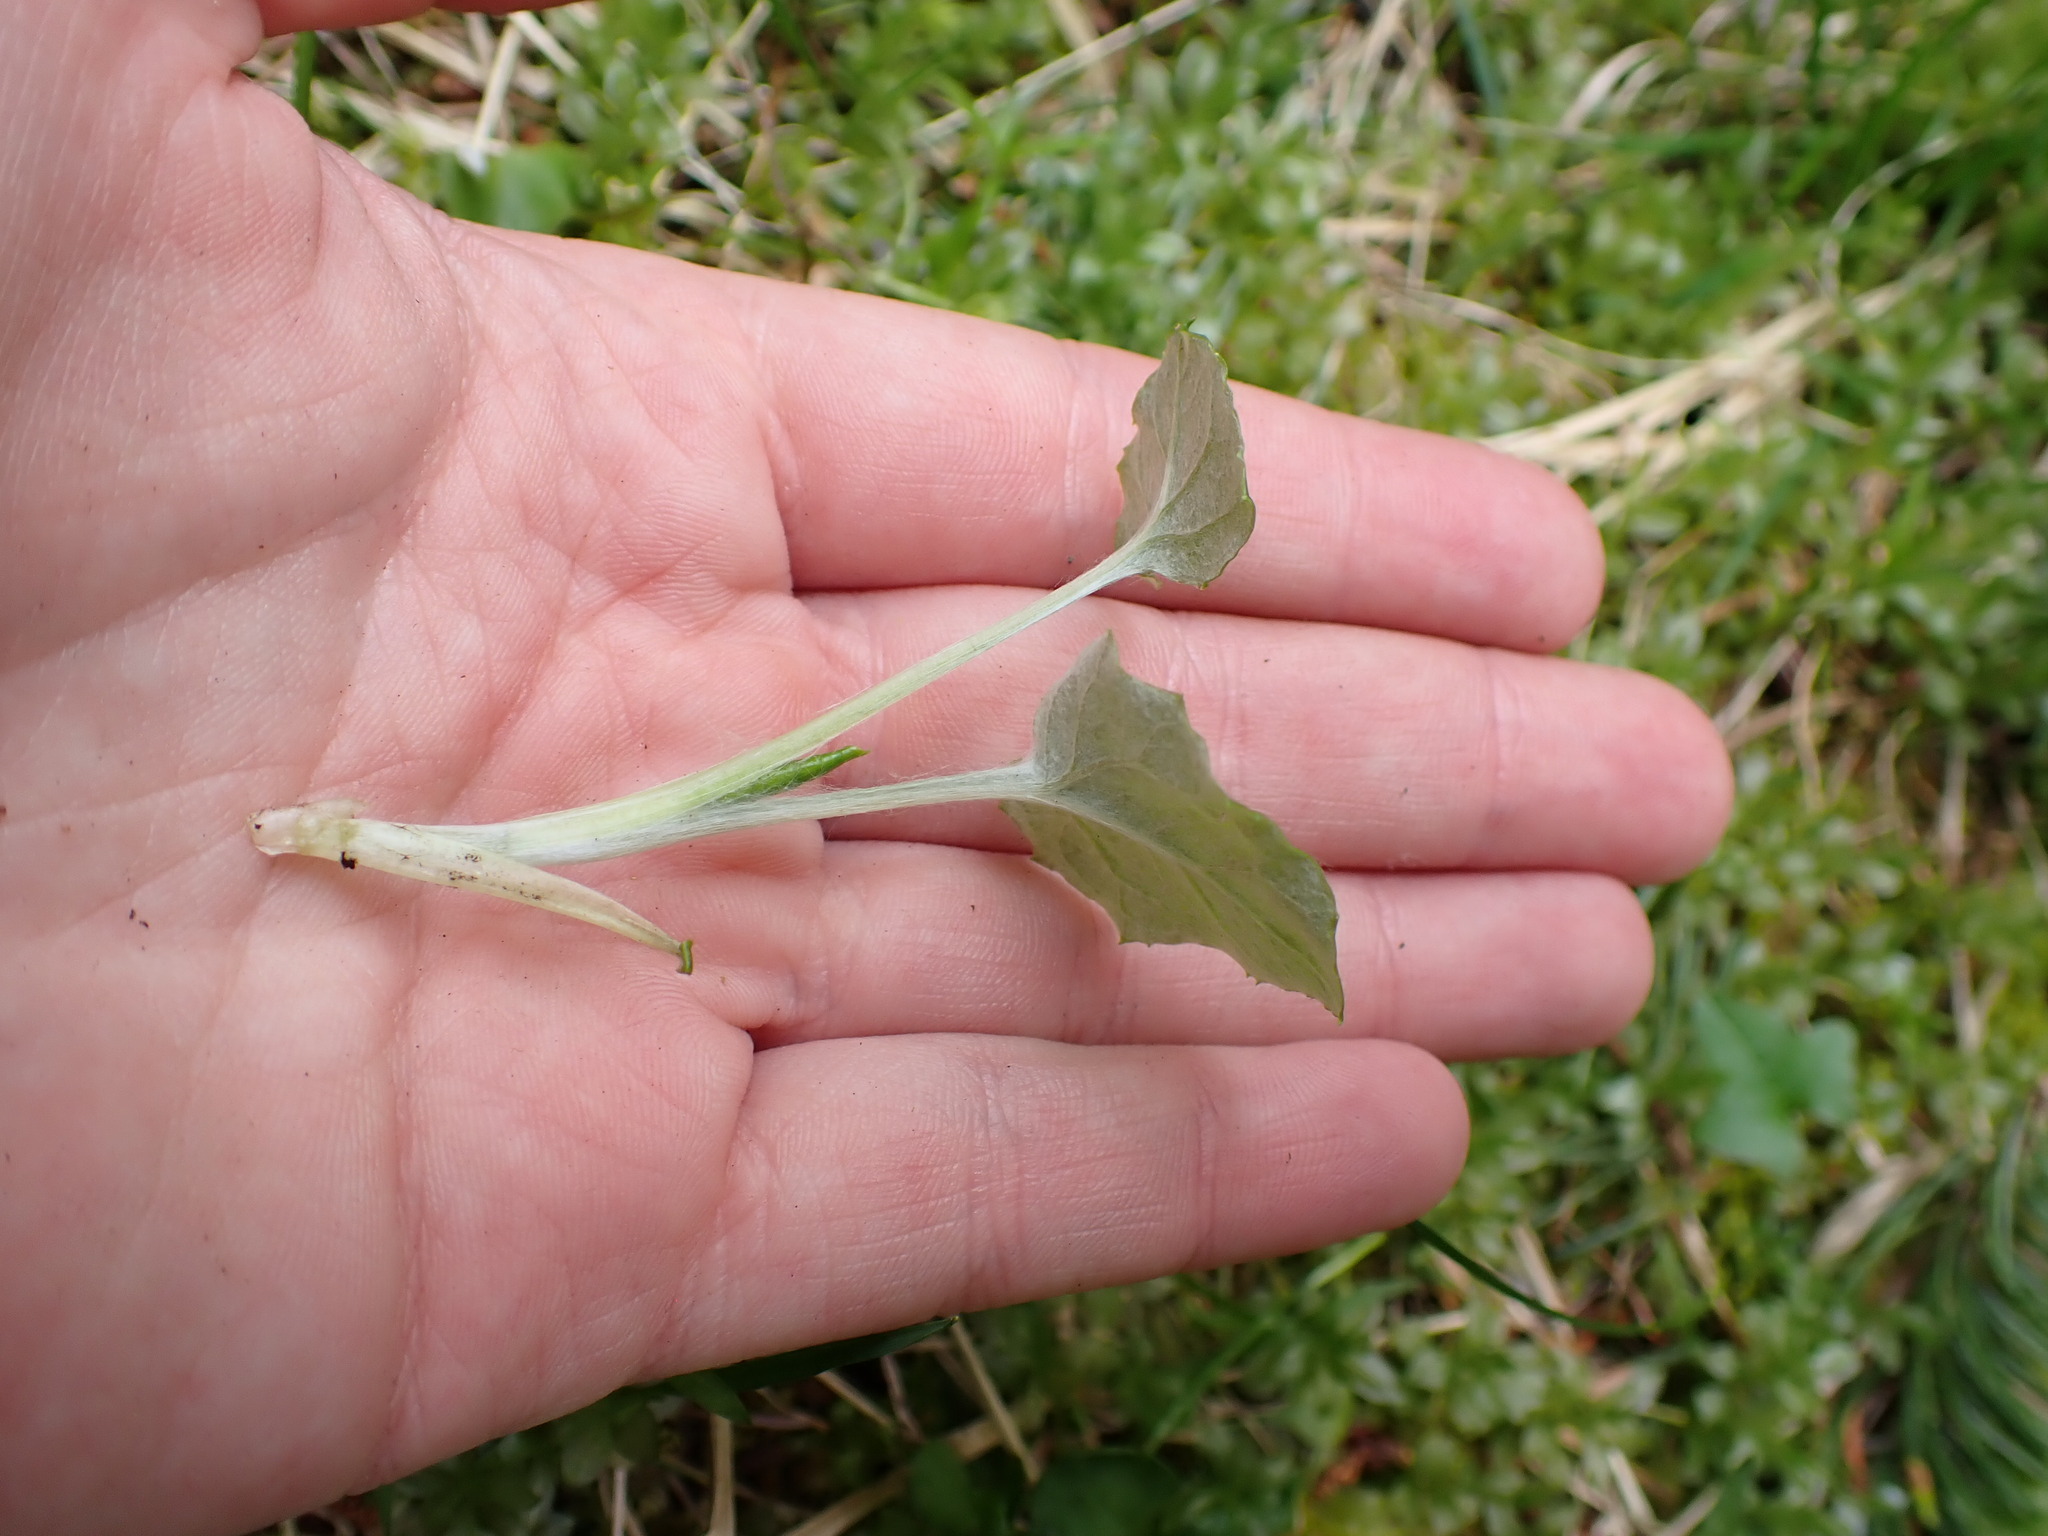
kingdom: Plantae
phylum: Tracheophyta
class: Magnoliopsida
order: Asterales
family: Asteraceae
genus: Adenocaulon
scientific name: Adenocaulon bicolor
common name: Trailplant
